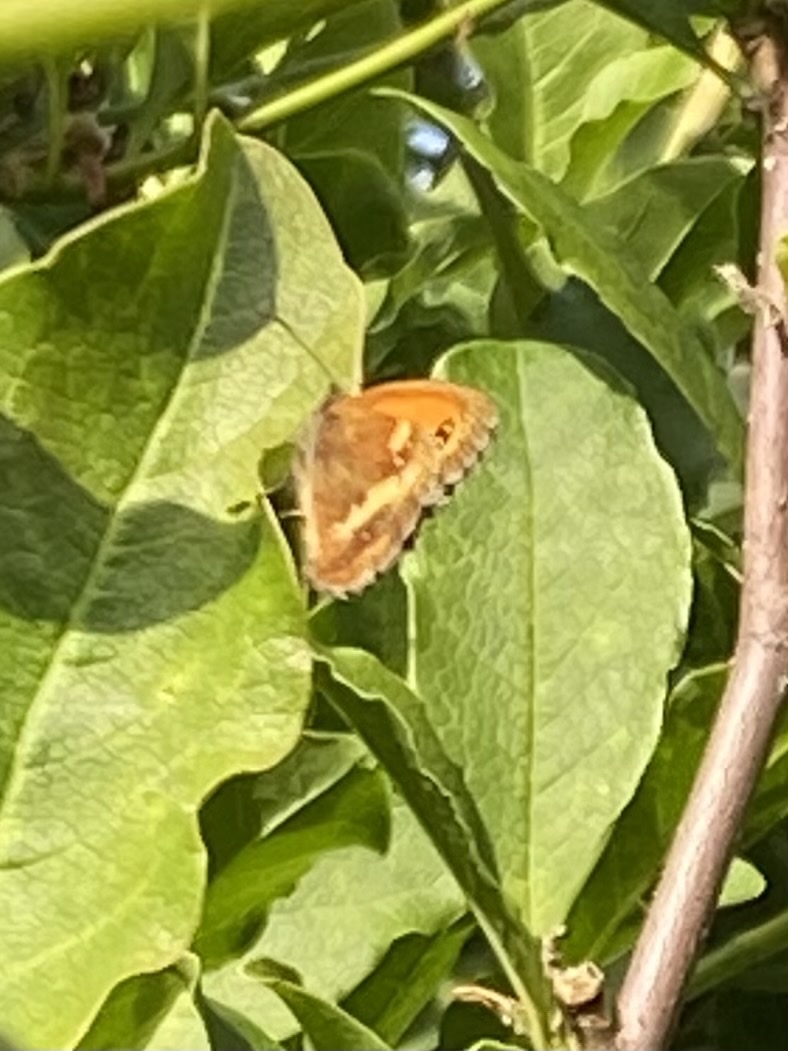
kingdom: Animalia
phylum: Arthropoda
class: Insecta
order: Lepidoptera
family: Nymphalidae
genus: Pyronia
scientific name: Pyronia tithonus
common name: Gatekeeper
